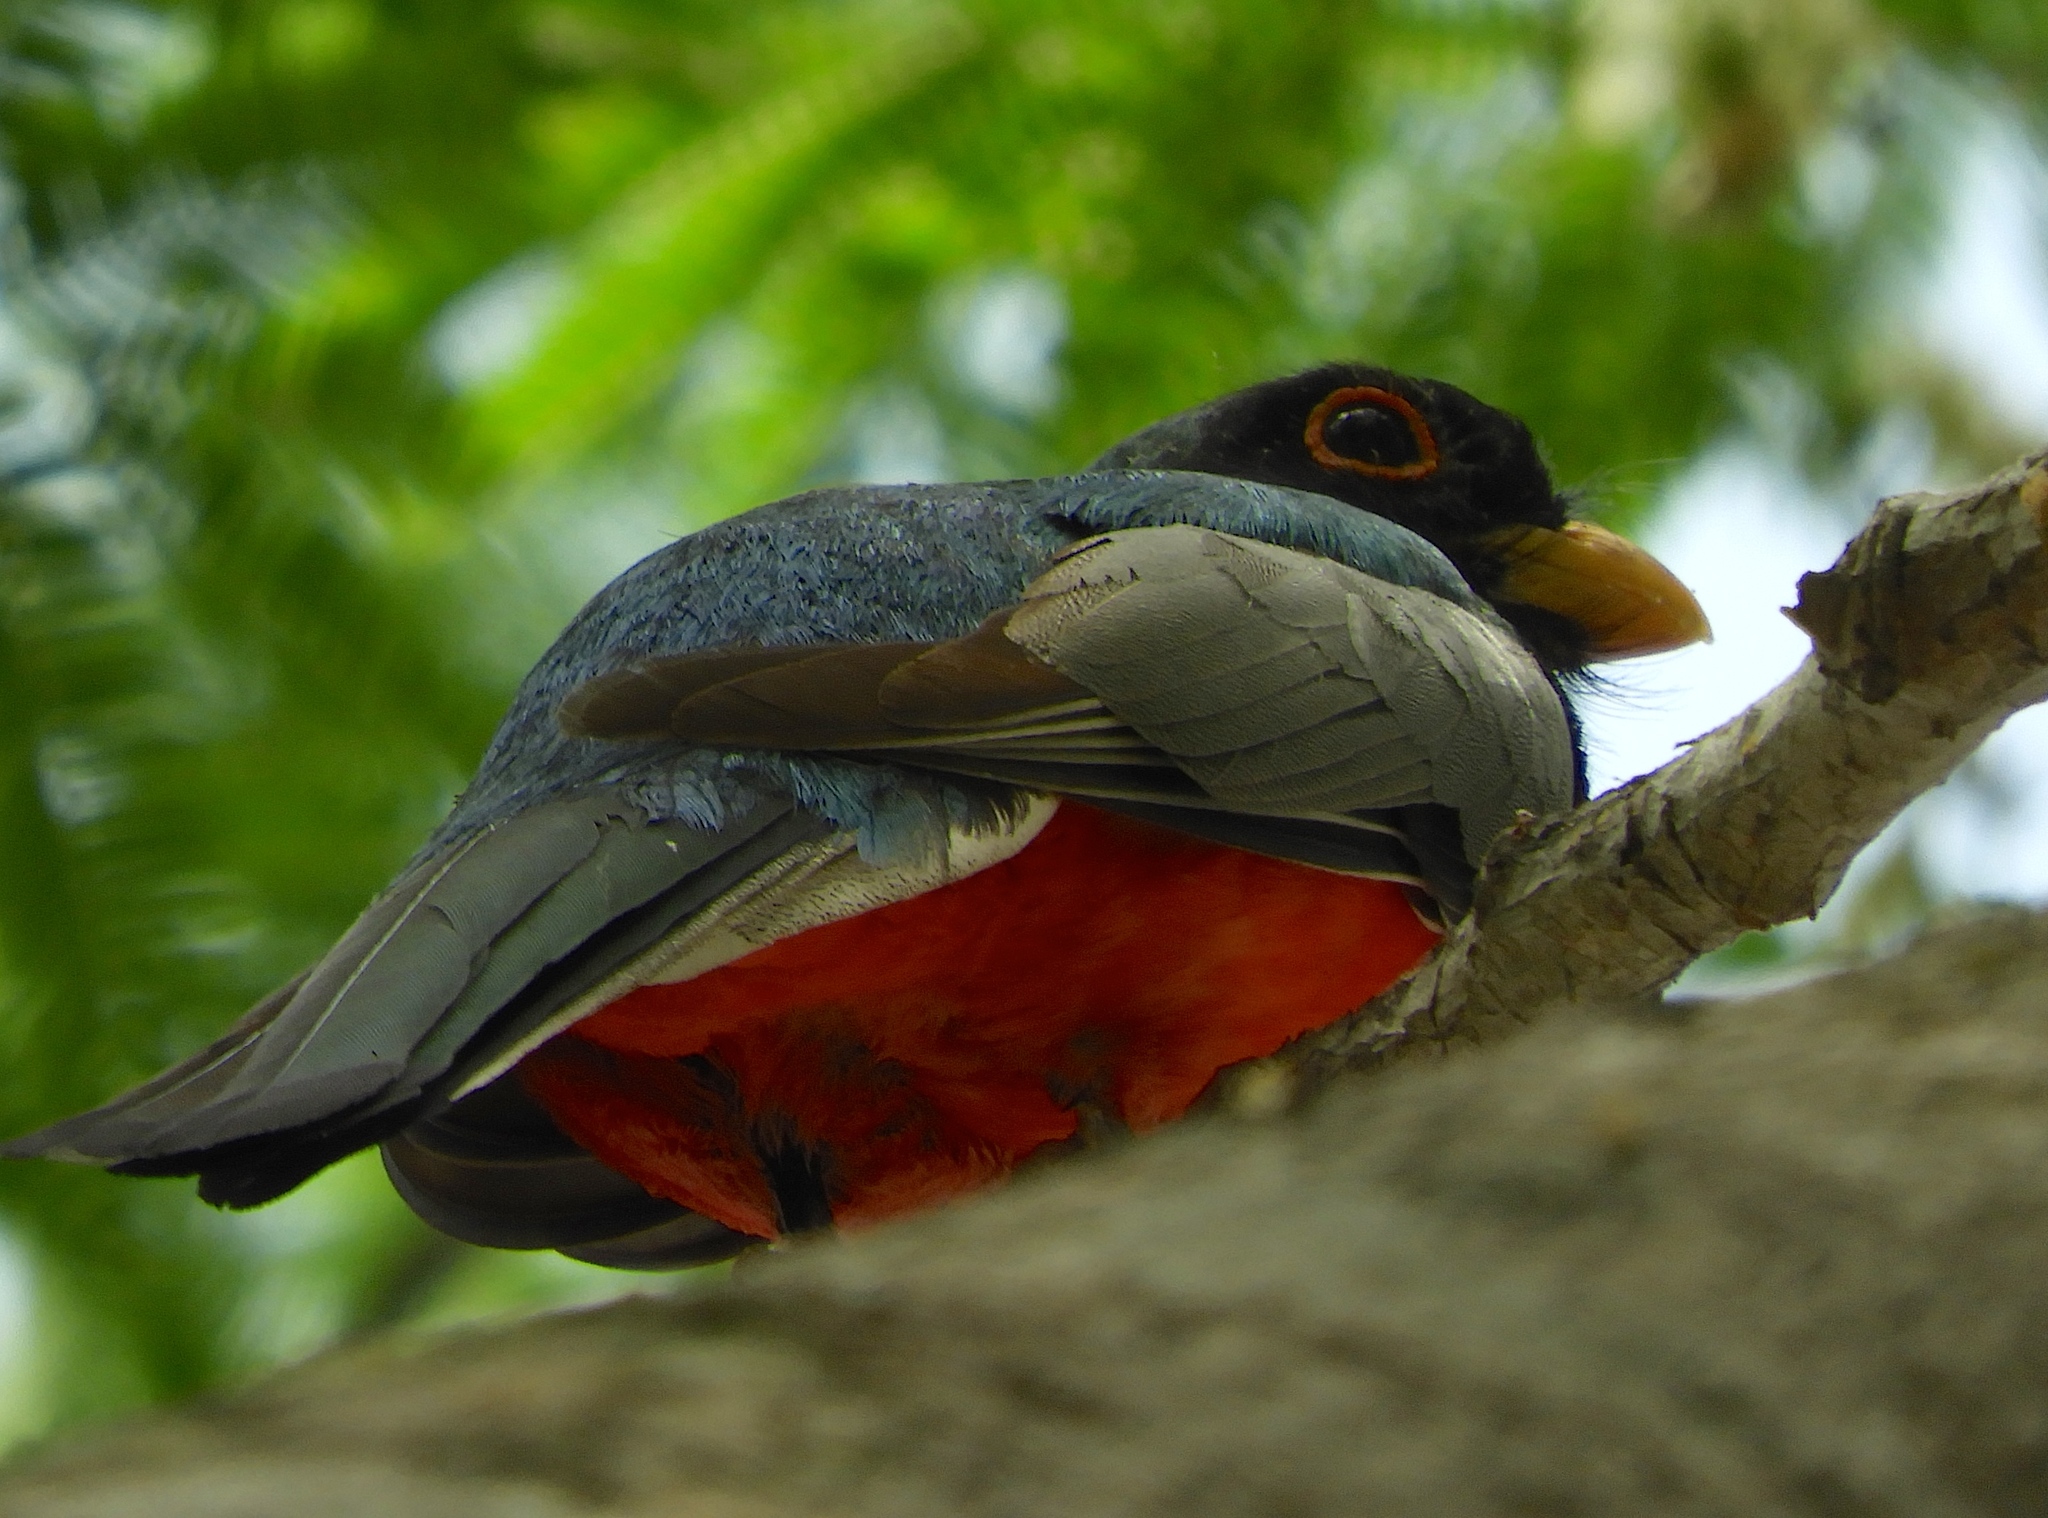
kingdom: Animalia
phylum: Chordata
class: Aves
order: Trogoniformes
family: Trogonidae
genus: Trogon
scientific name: Trogon elegans
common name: Elegant trogon
